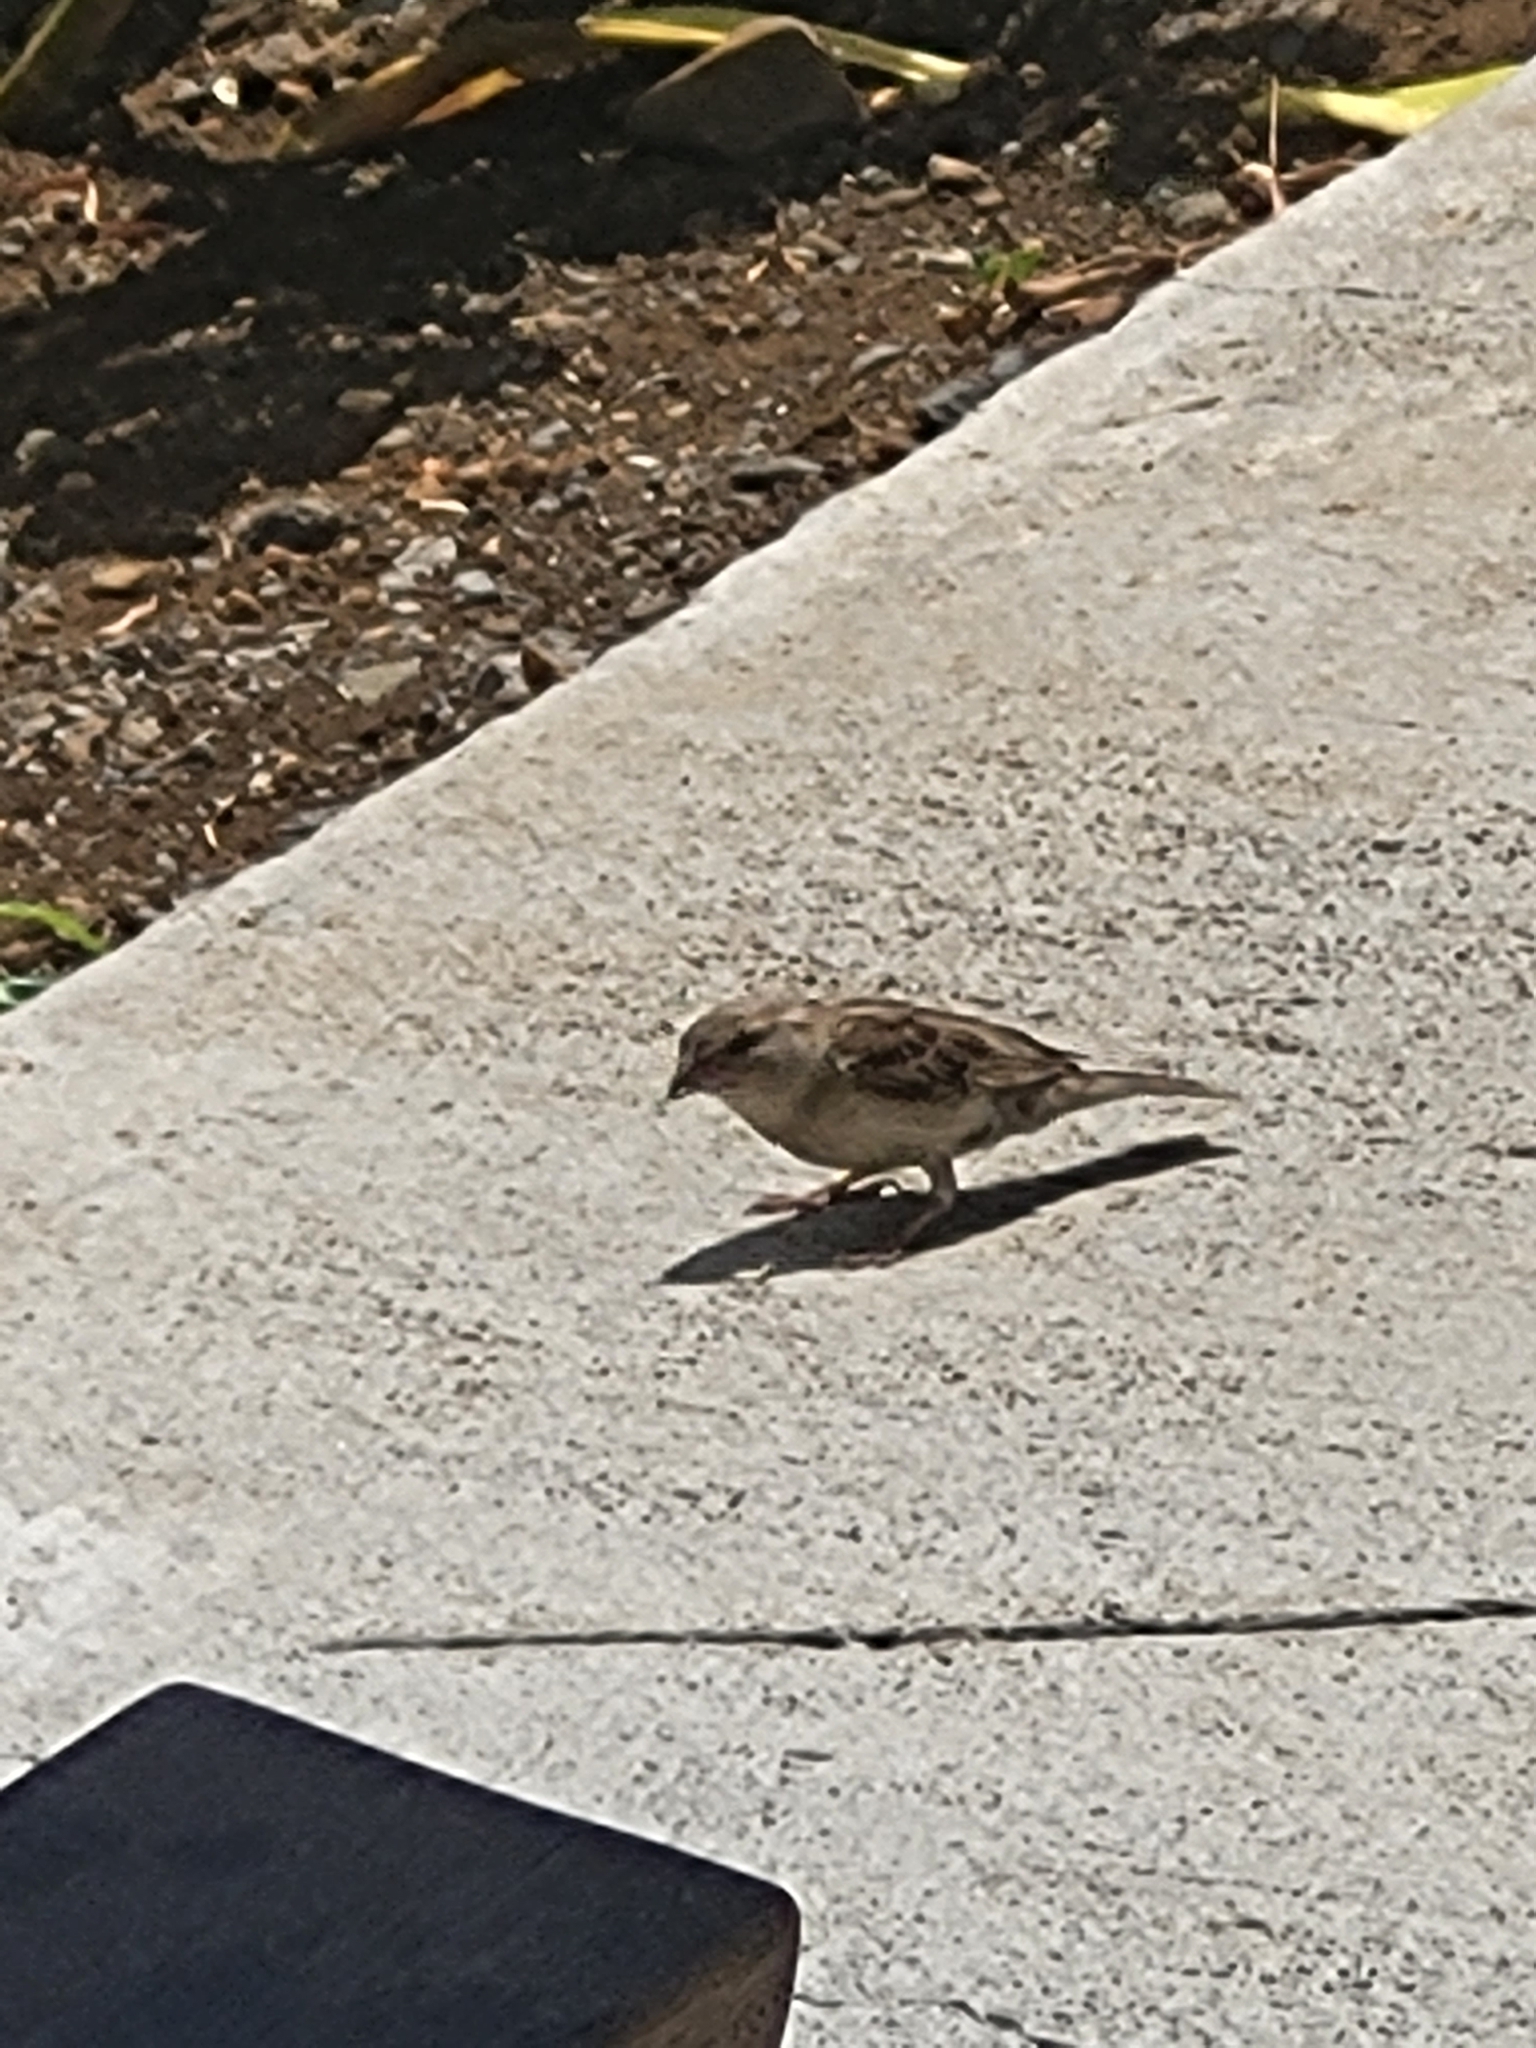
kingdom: Animalia
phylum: Chordata
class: Aves
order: Passeriformes
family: Passeridae
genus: Passer
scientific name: Passer domesticus
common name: House sparrow
